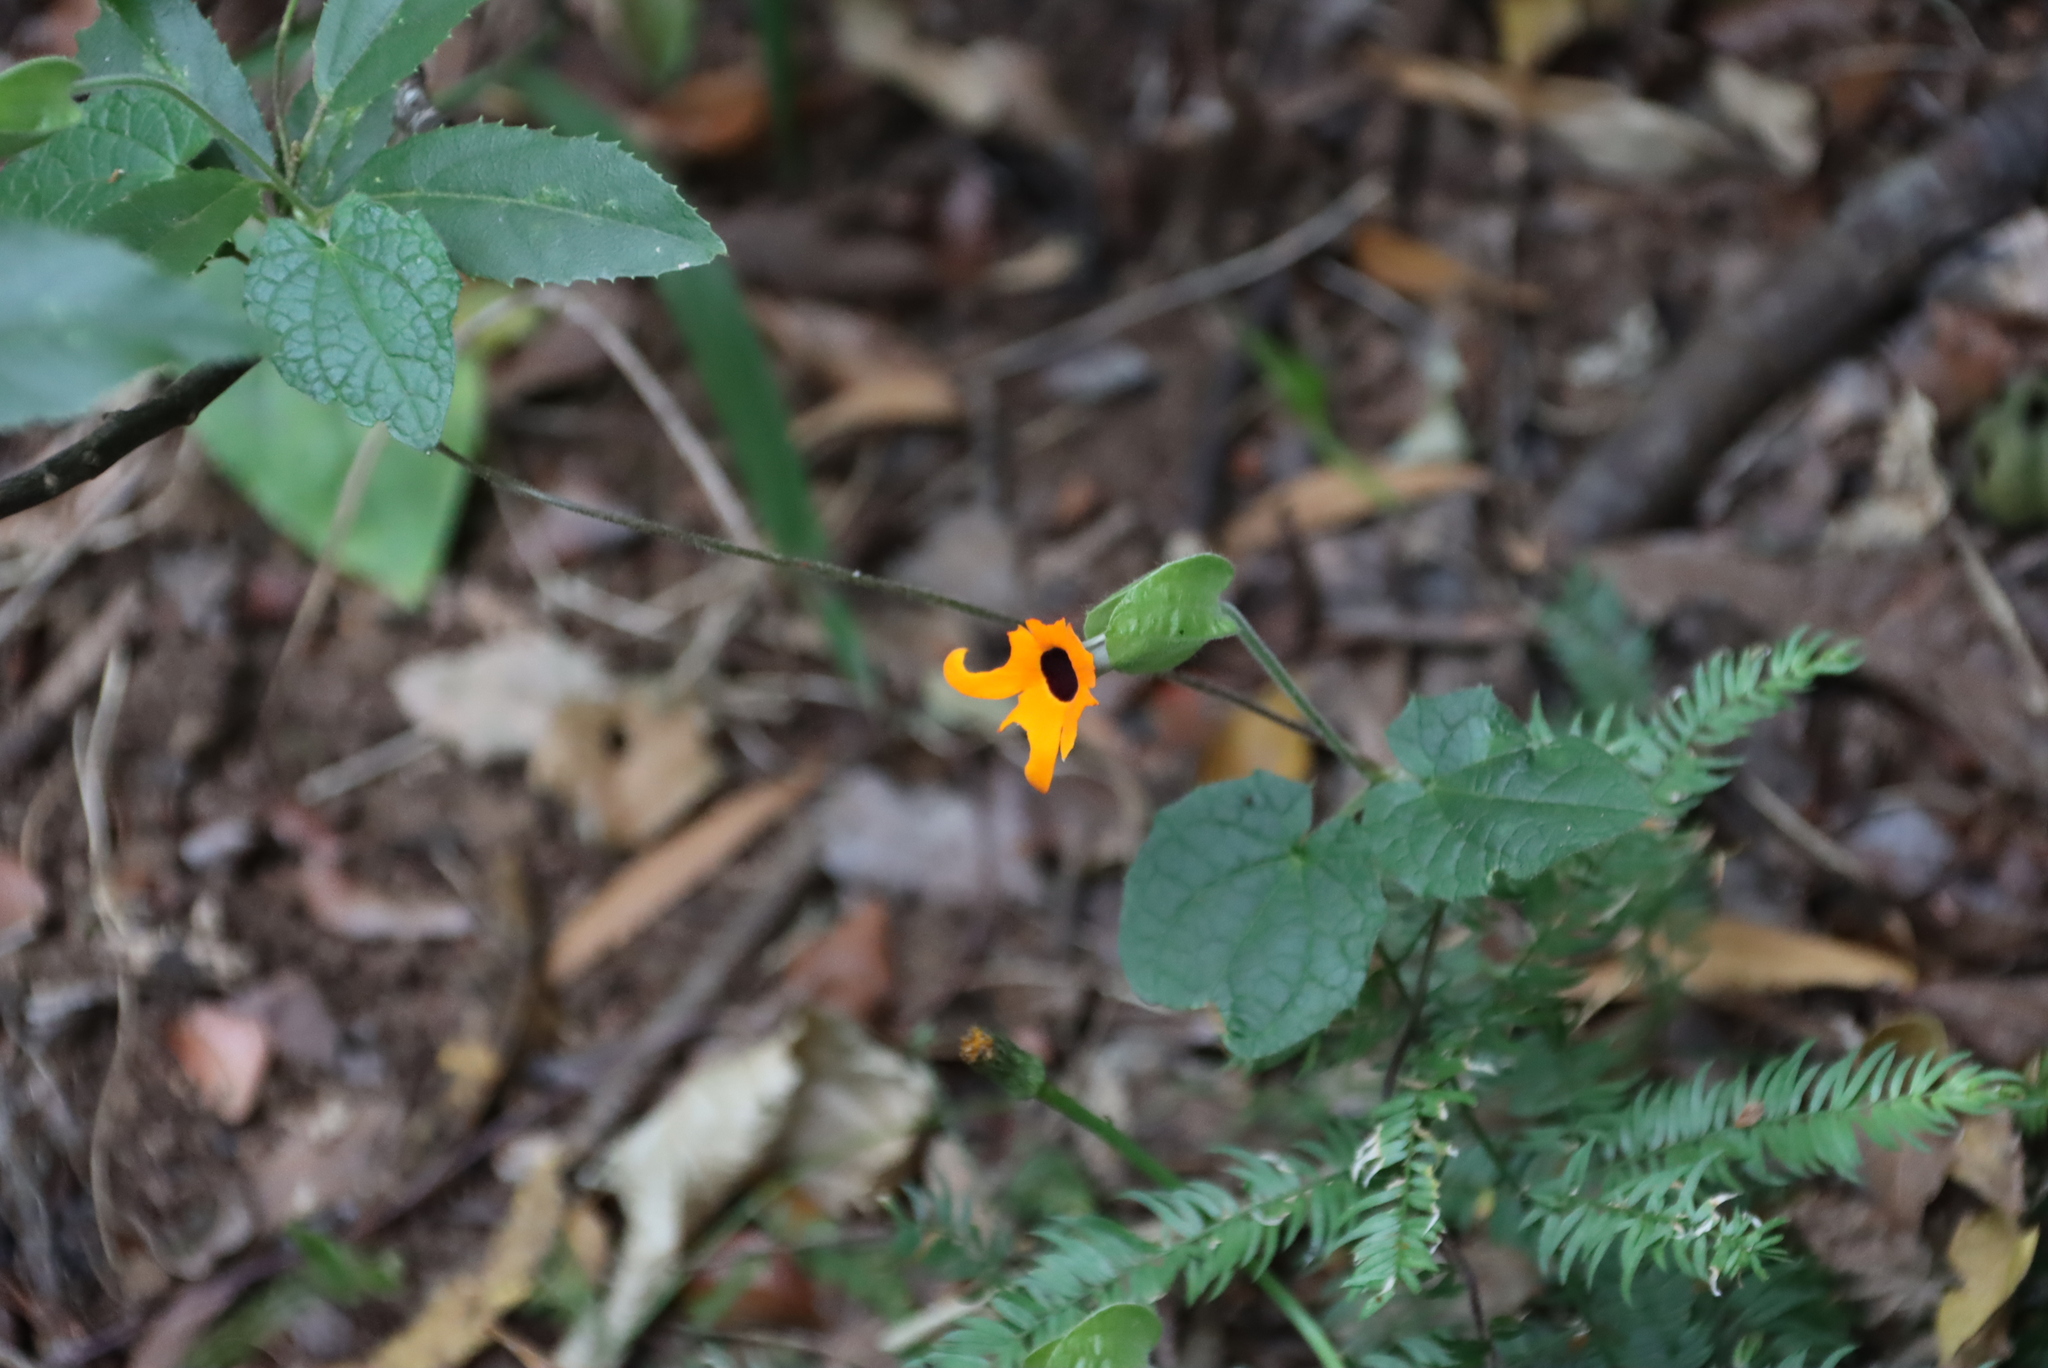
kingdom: Plantae
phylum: Tracheophyta
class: Magnoliopsida
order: Lamiales
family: Acanthaceae
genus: Thunbergia
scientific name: Thunbergia alata
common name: Blackeyed susan vine
